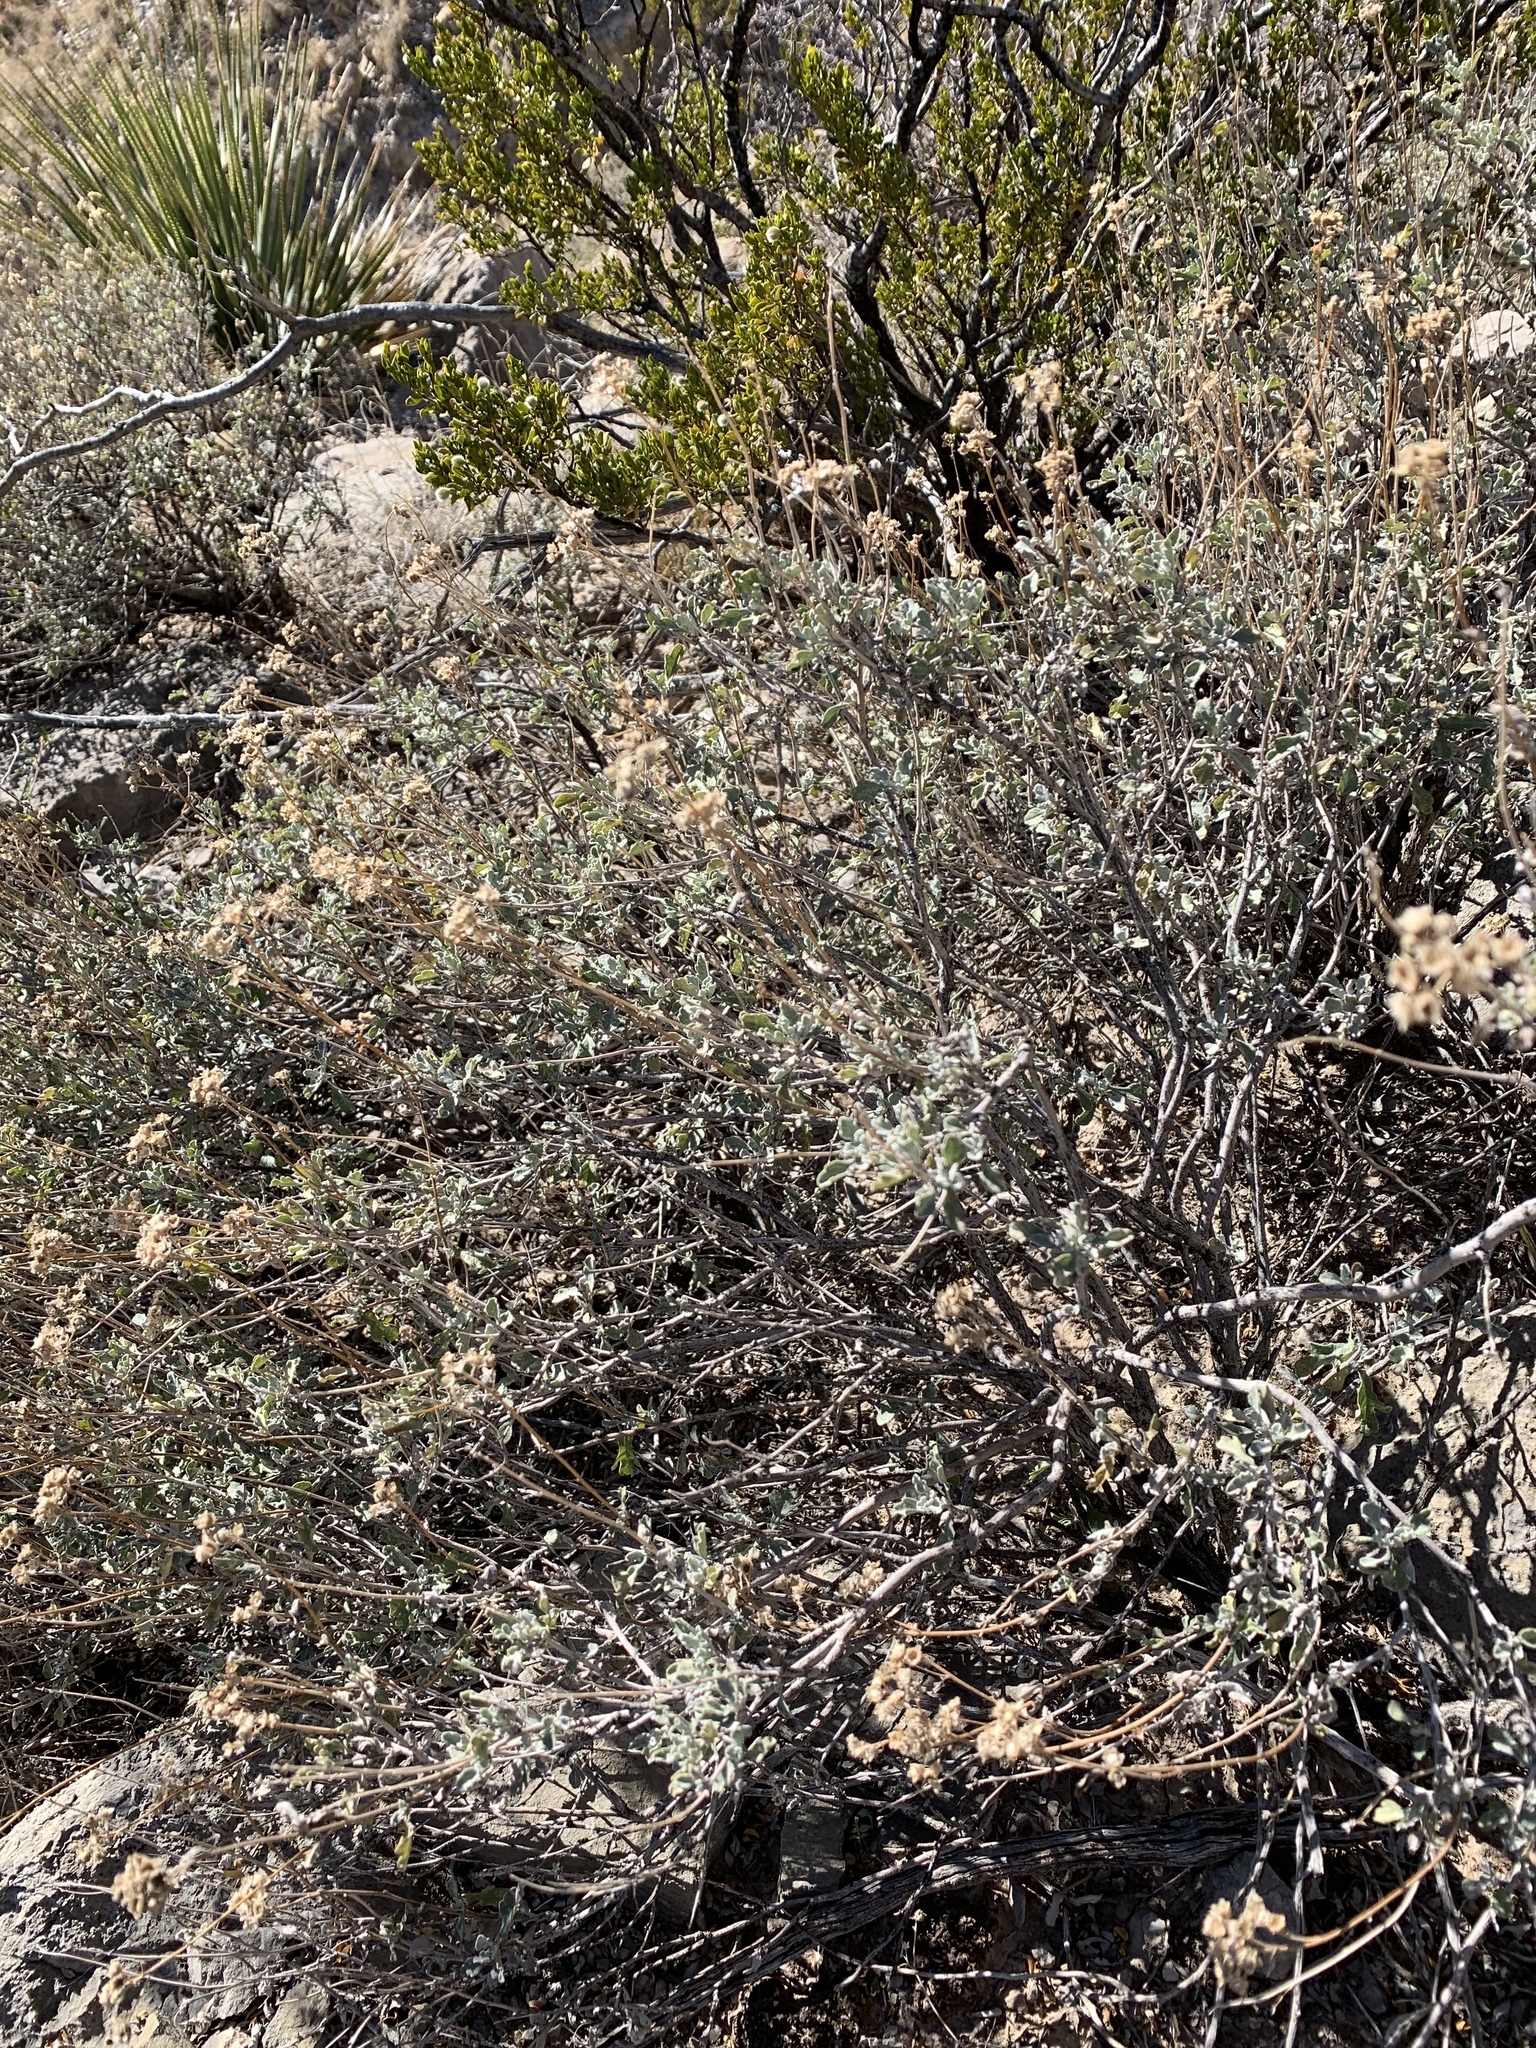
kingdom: Plantae
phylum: Tracheophyta
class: Magnoliopsida
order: Asterales
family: Asteraceae
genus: Parthenium
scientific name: Parthenium incanum
